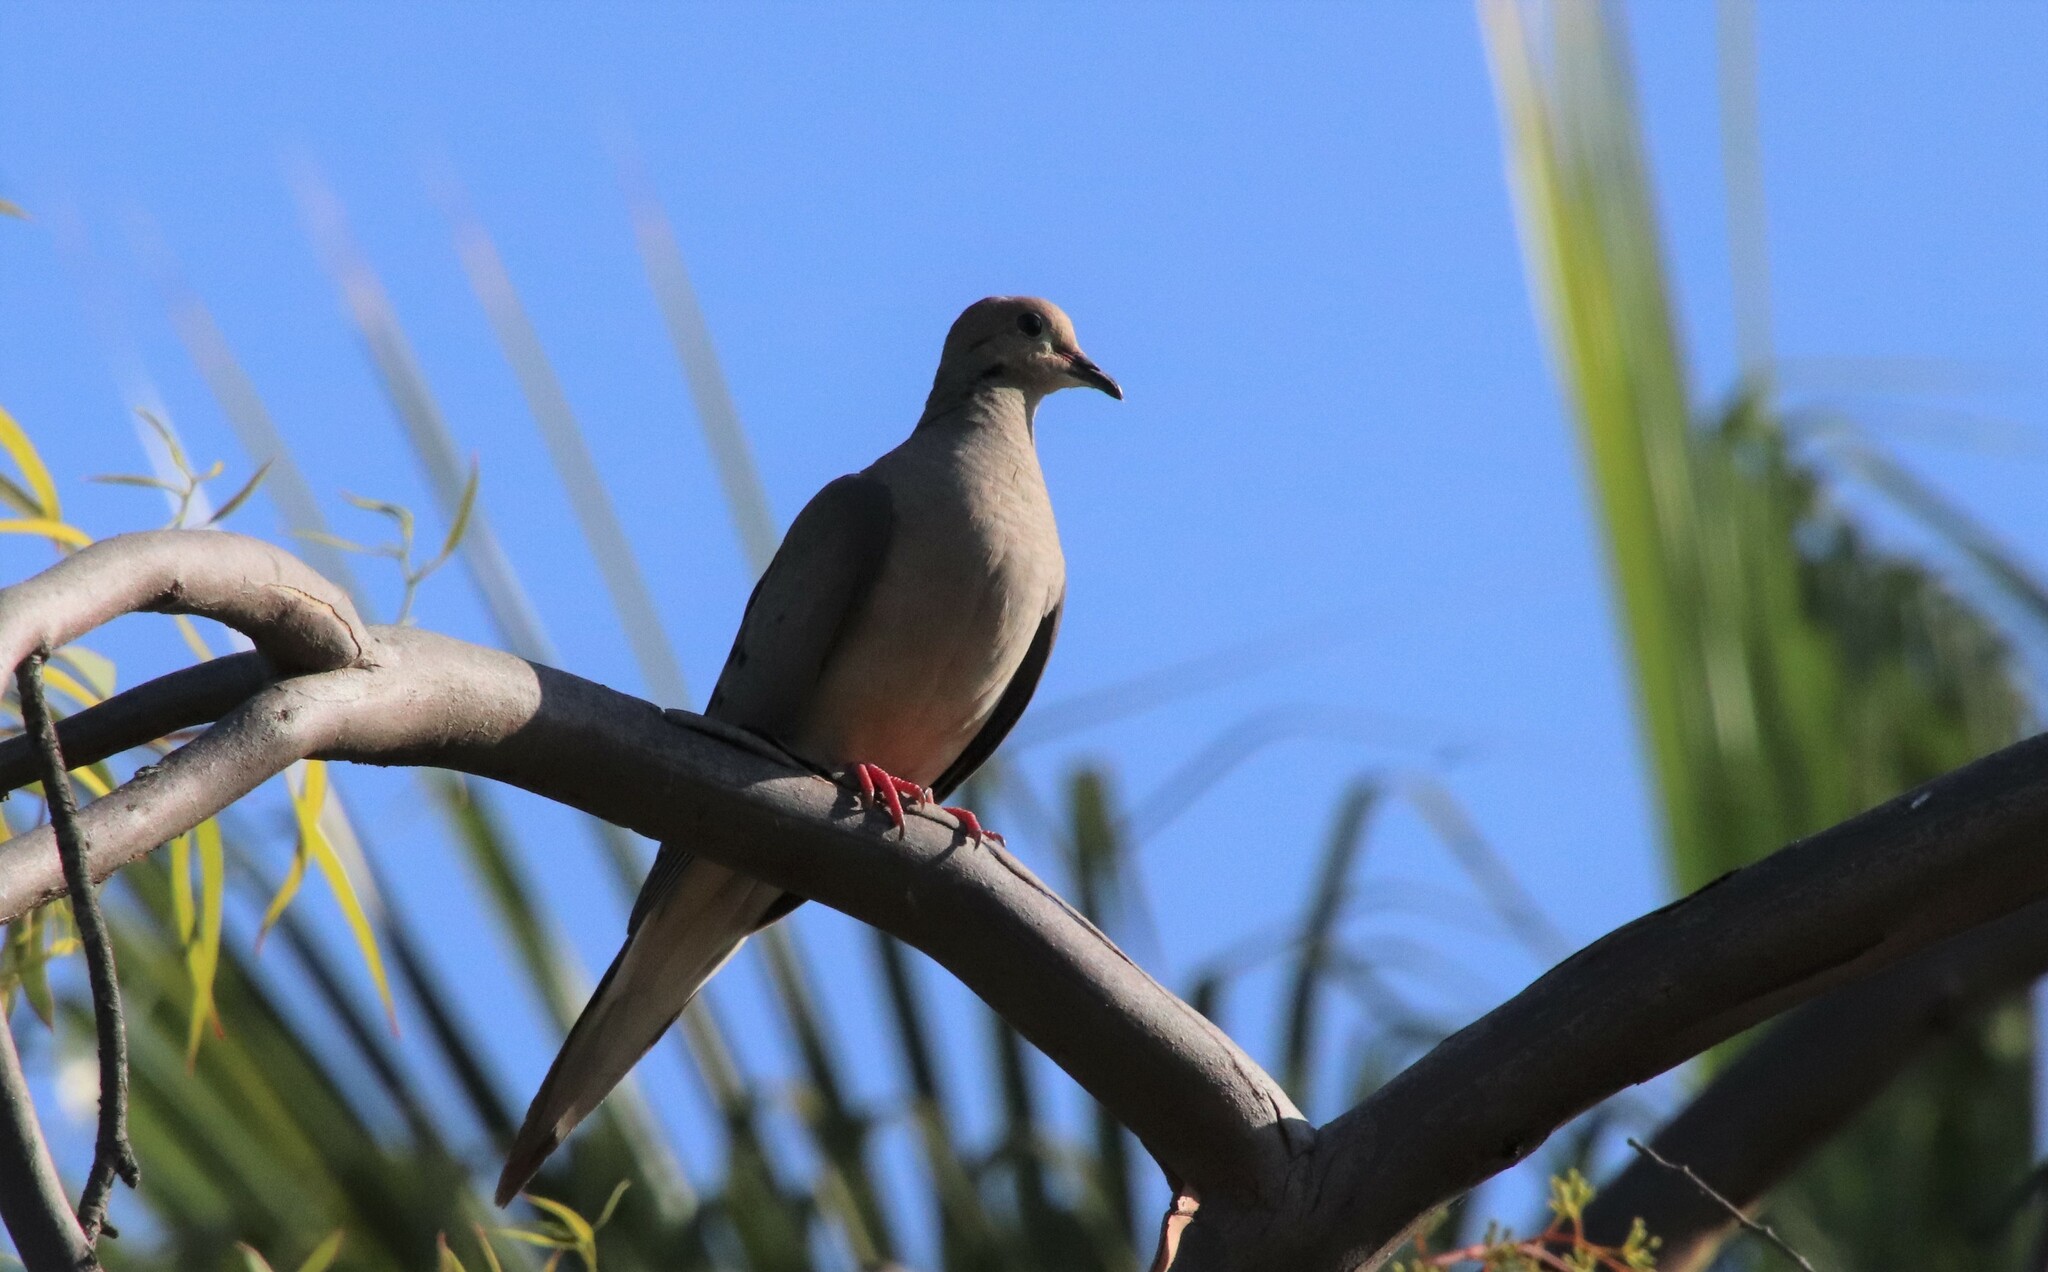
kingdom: Animalia
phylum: Chordata
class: Aves
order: Columbiformes
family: Columbidae
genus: Zenaida
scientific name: Zenaida macroura
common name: Mourning dove
